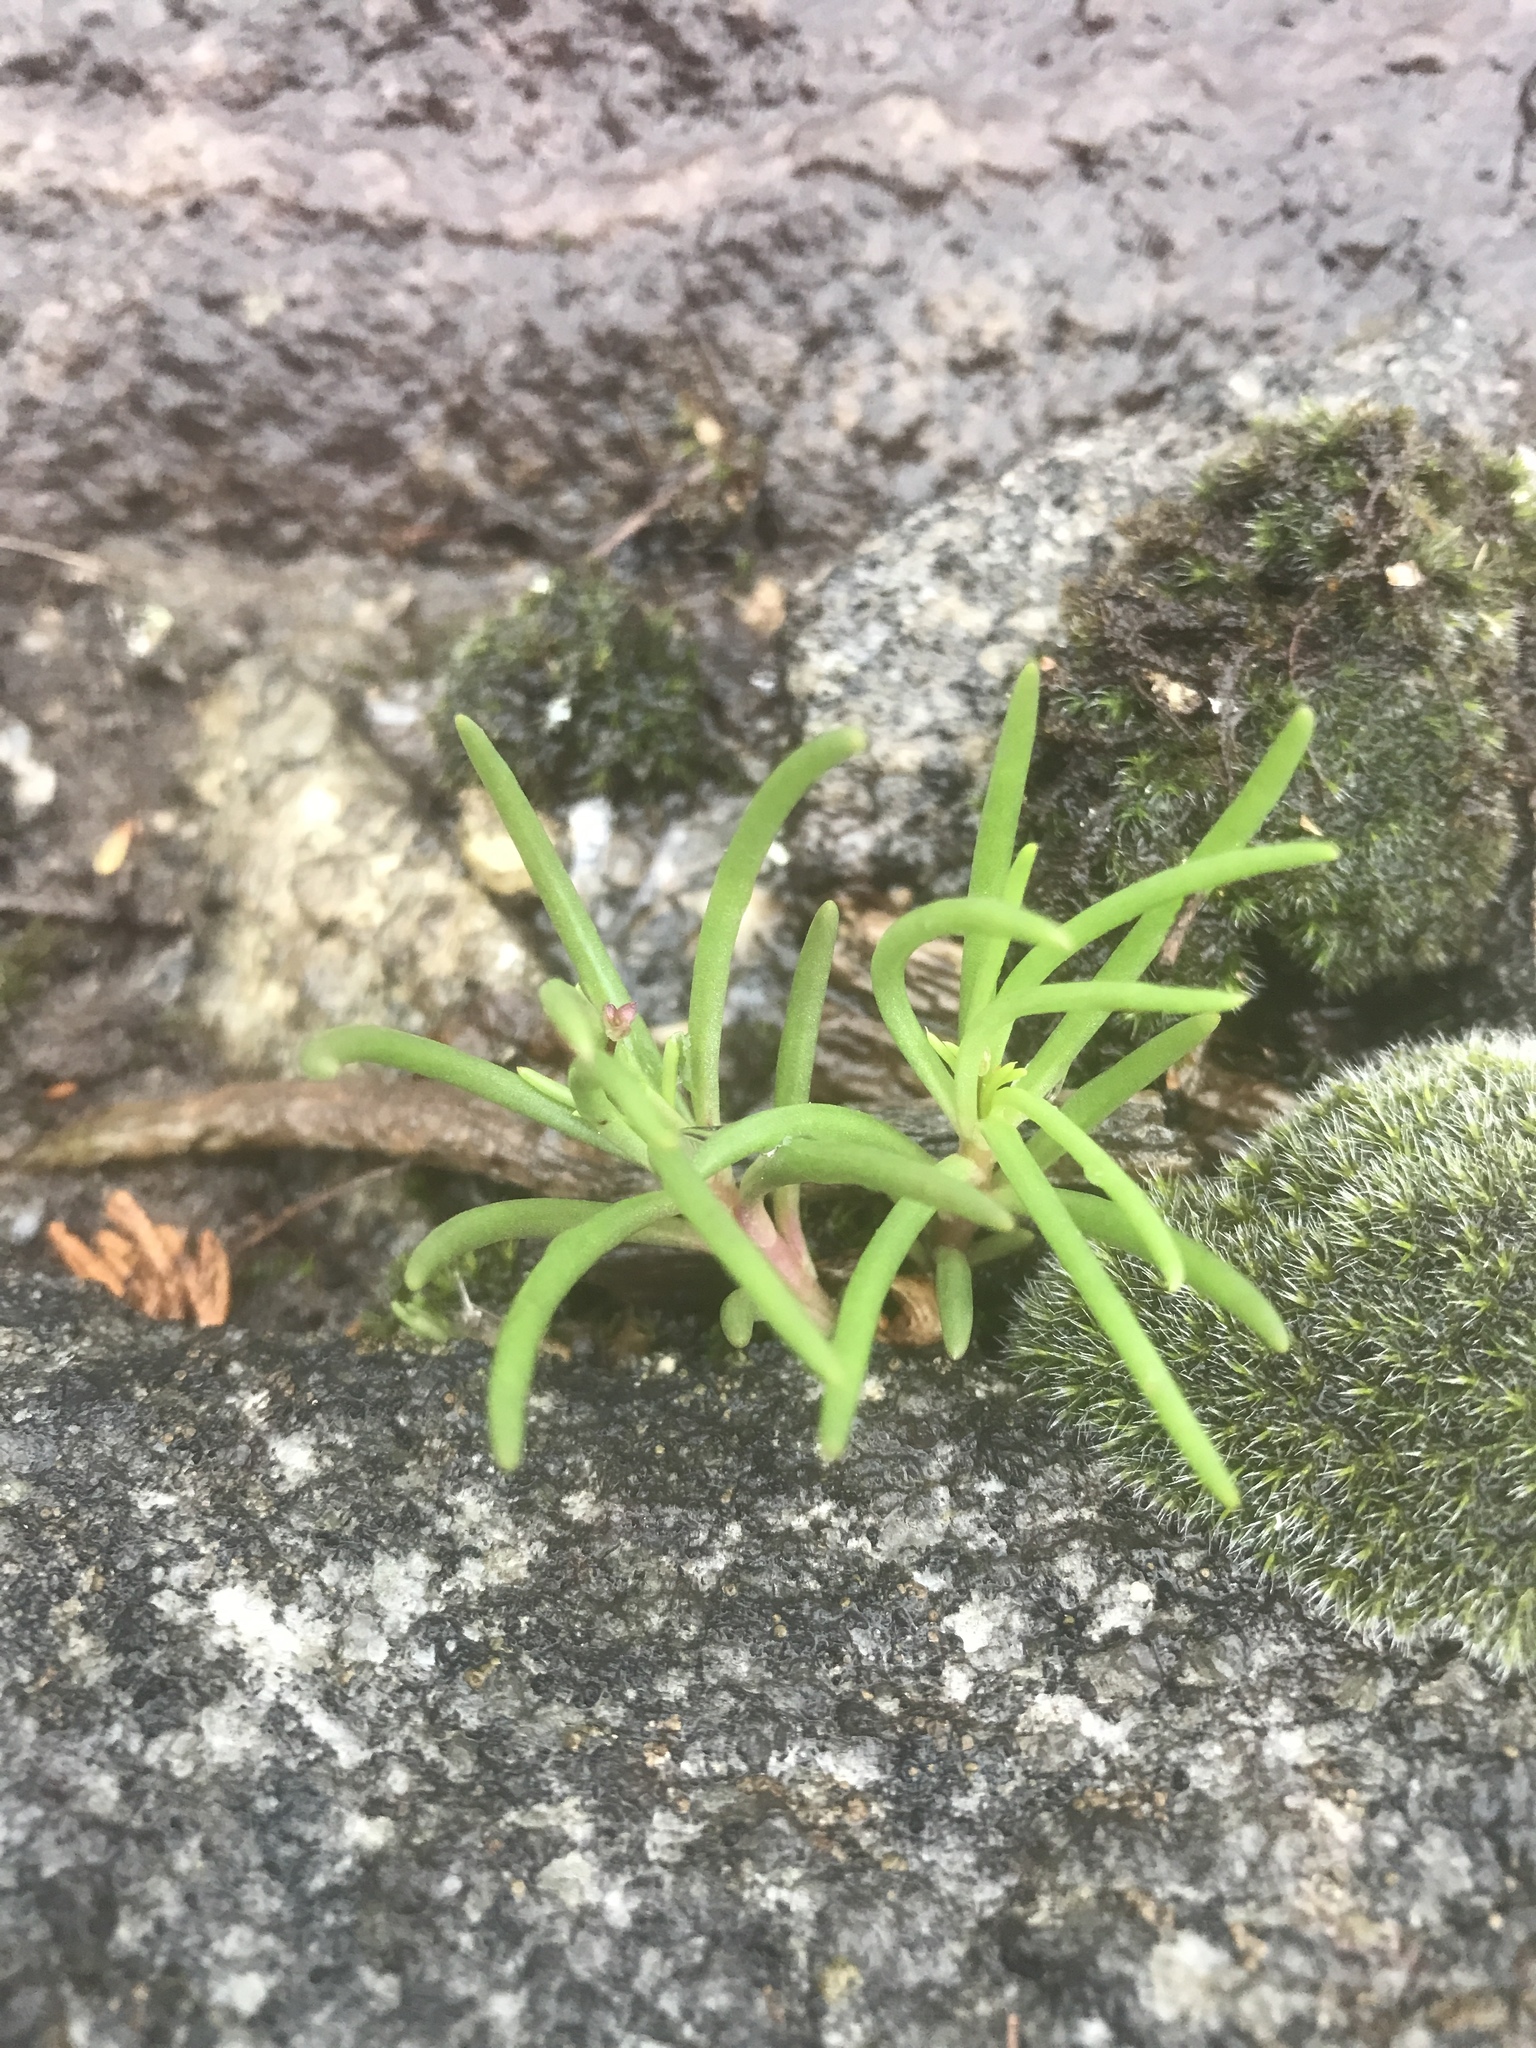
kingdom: Plantae
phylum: Tracheophyta
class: Magnoliopsida
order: Caryophyllales
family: Montiaceae
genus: Phemeranthus
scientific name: Phemeranthus teretifolius
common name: Quill fameflower
